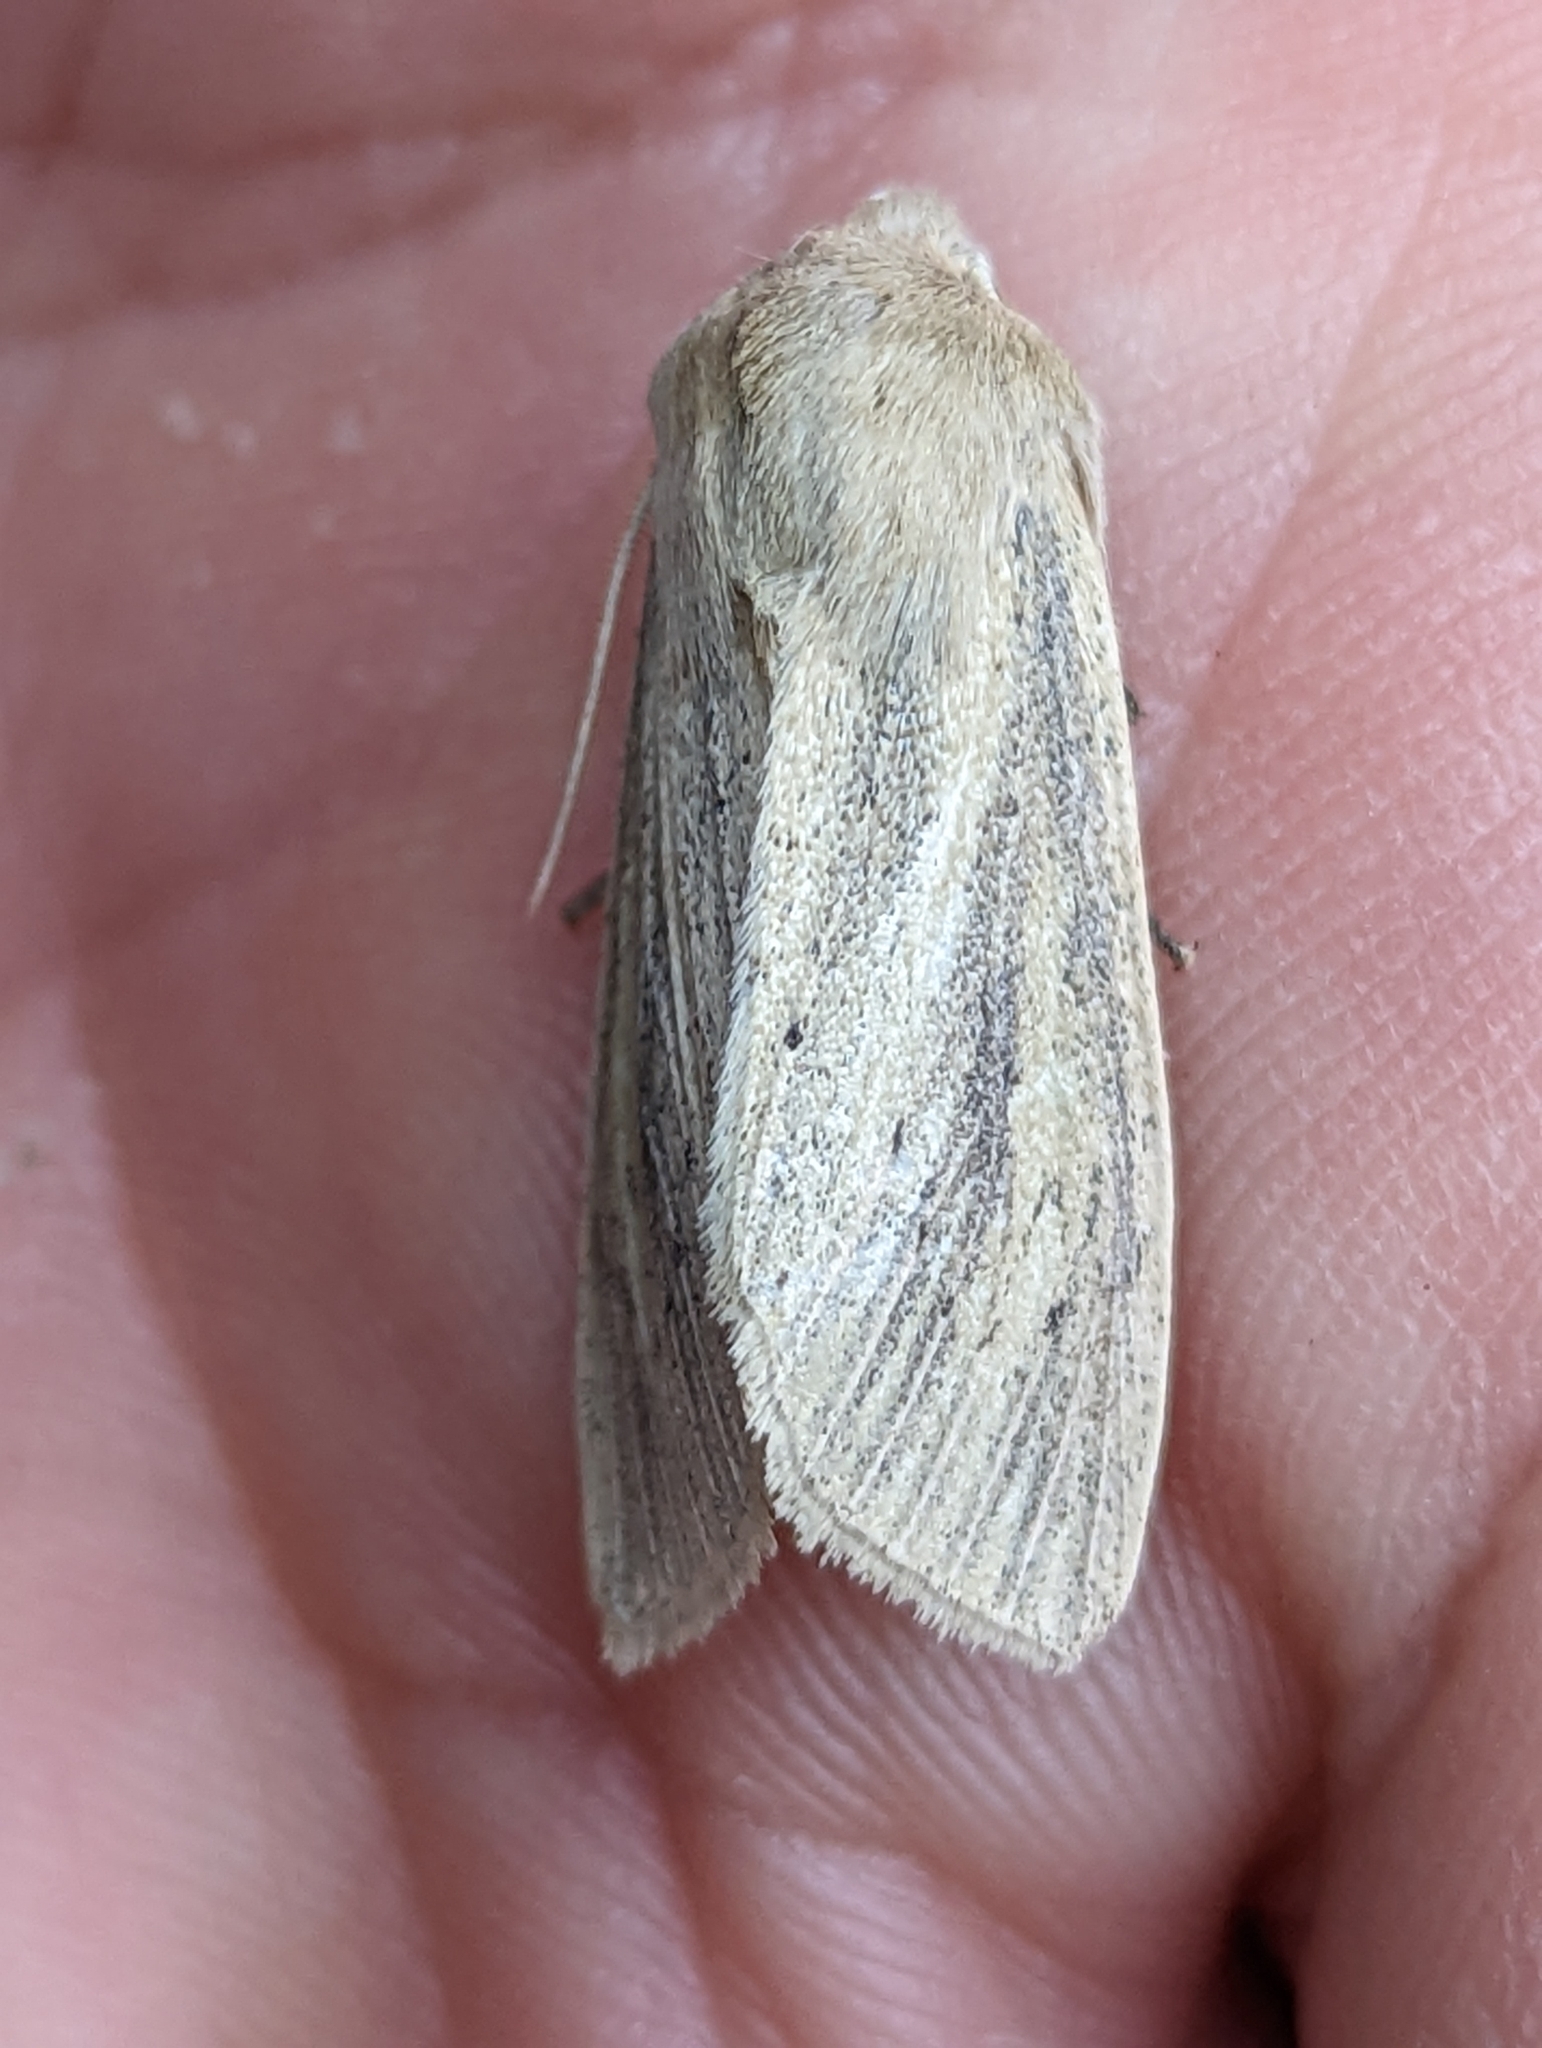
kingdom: Animalia
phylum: Arthropoda
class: Insecta
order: Lepidoptera
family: Noctuidae
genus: Rhizedra
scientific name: Rhizedra lutosa
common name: Large wainscot
